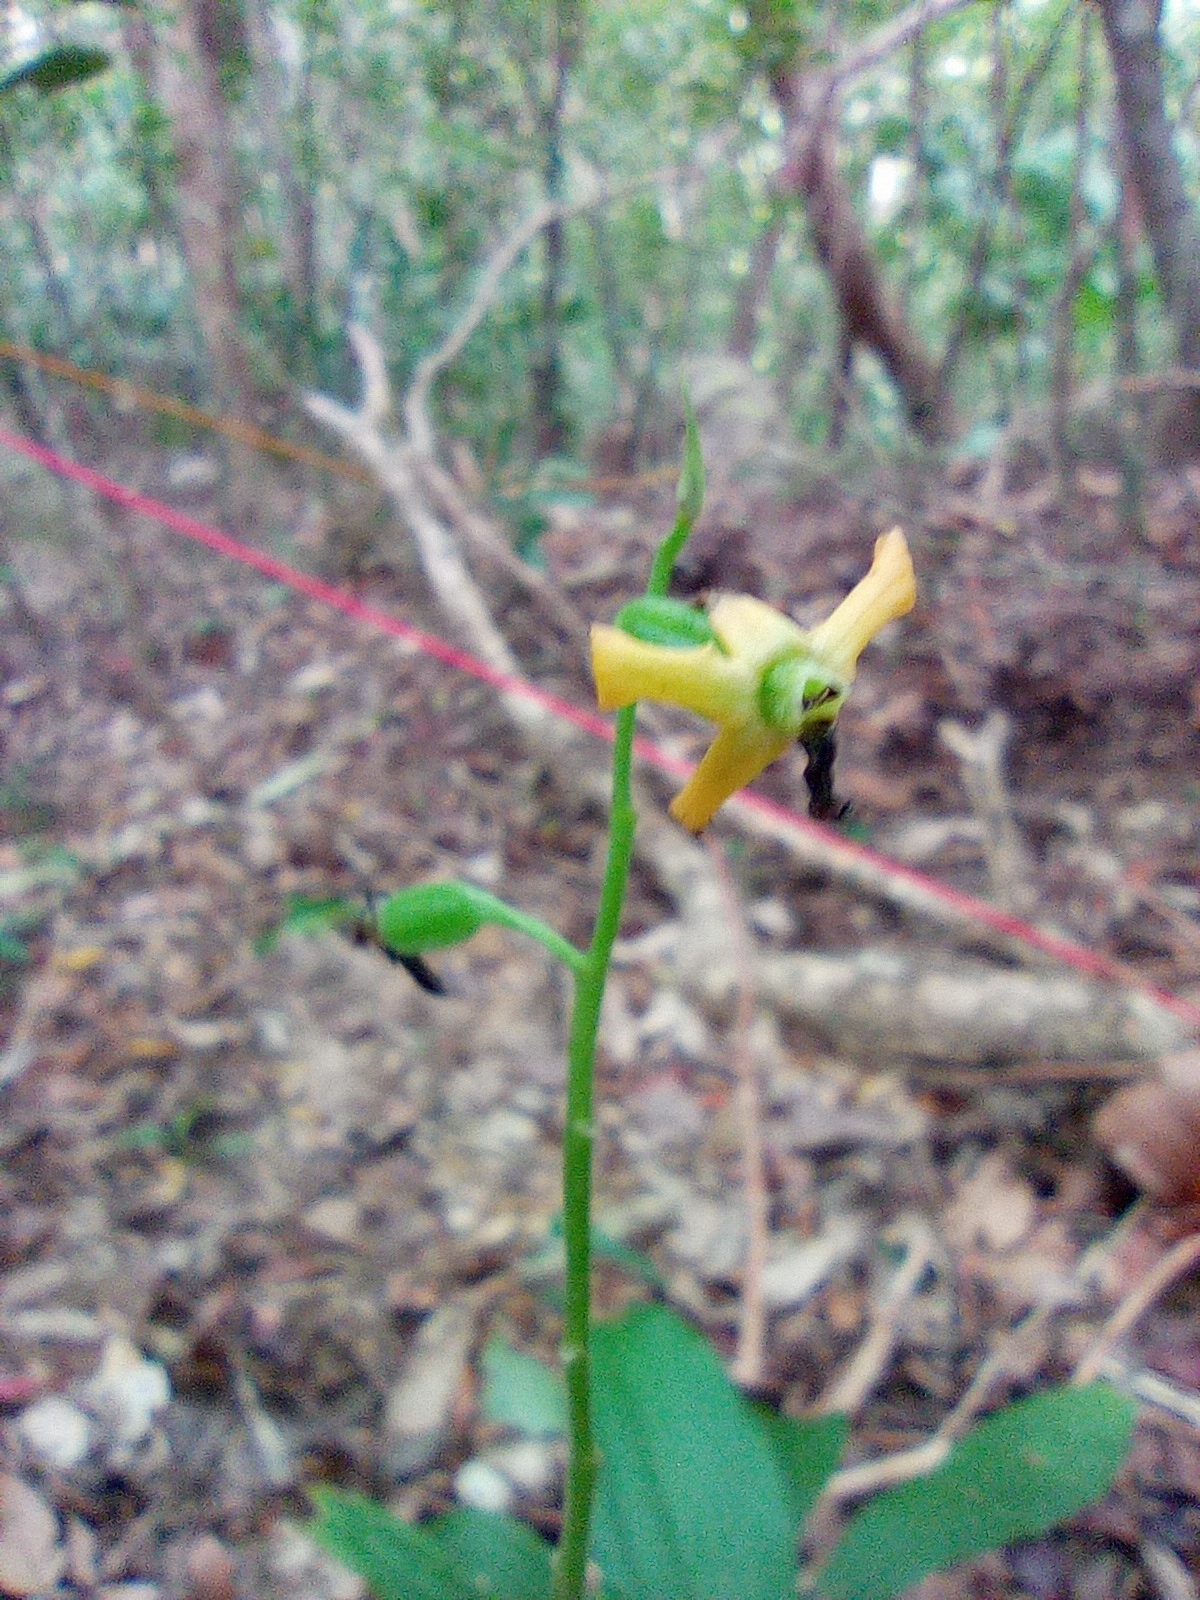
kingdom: Plantae
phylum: Tracheophyta
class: Liliopsida
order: Asparagales
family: Orchidaceae
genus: Calanthe
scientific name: Calanthe obcordata
